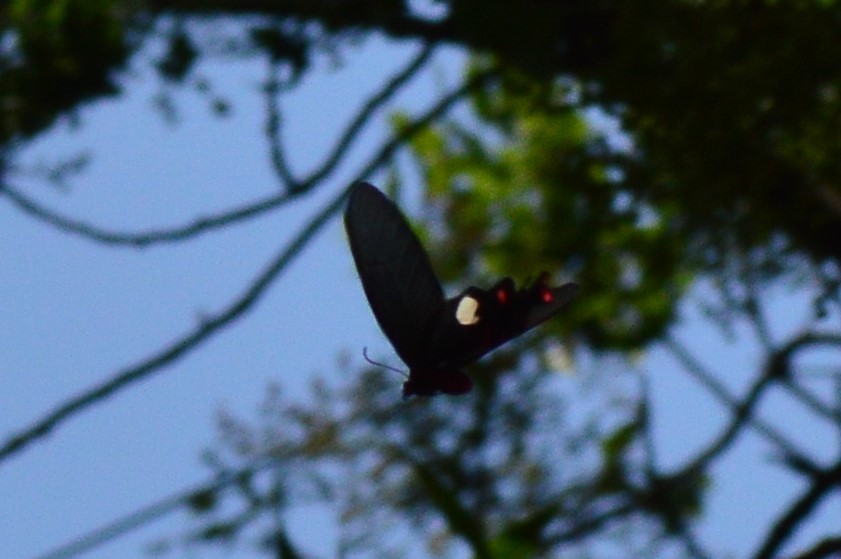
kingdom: Animalia
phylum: Arthropoda
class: Insecta
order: Lepidoptera
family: Papilionidae
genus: Byasa
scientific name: Byasa polyeuctes
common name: Common windmill
